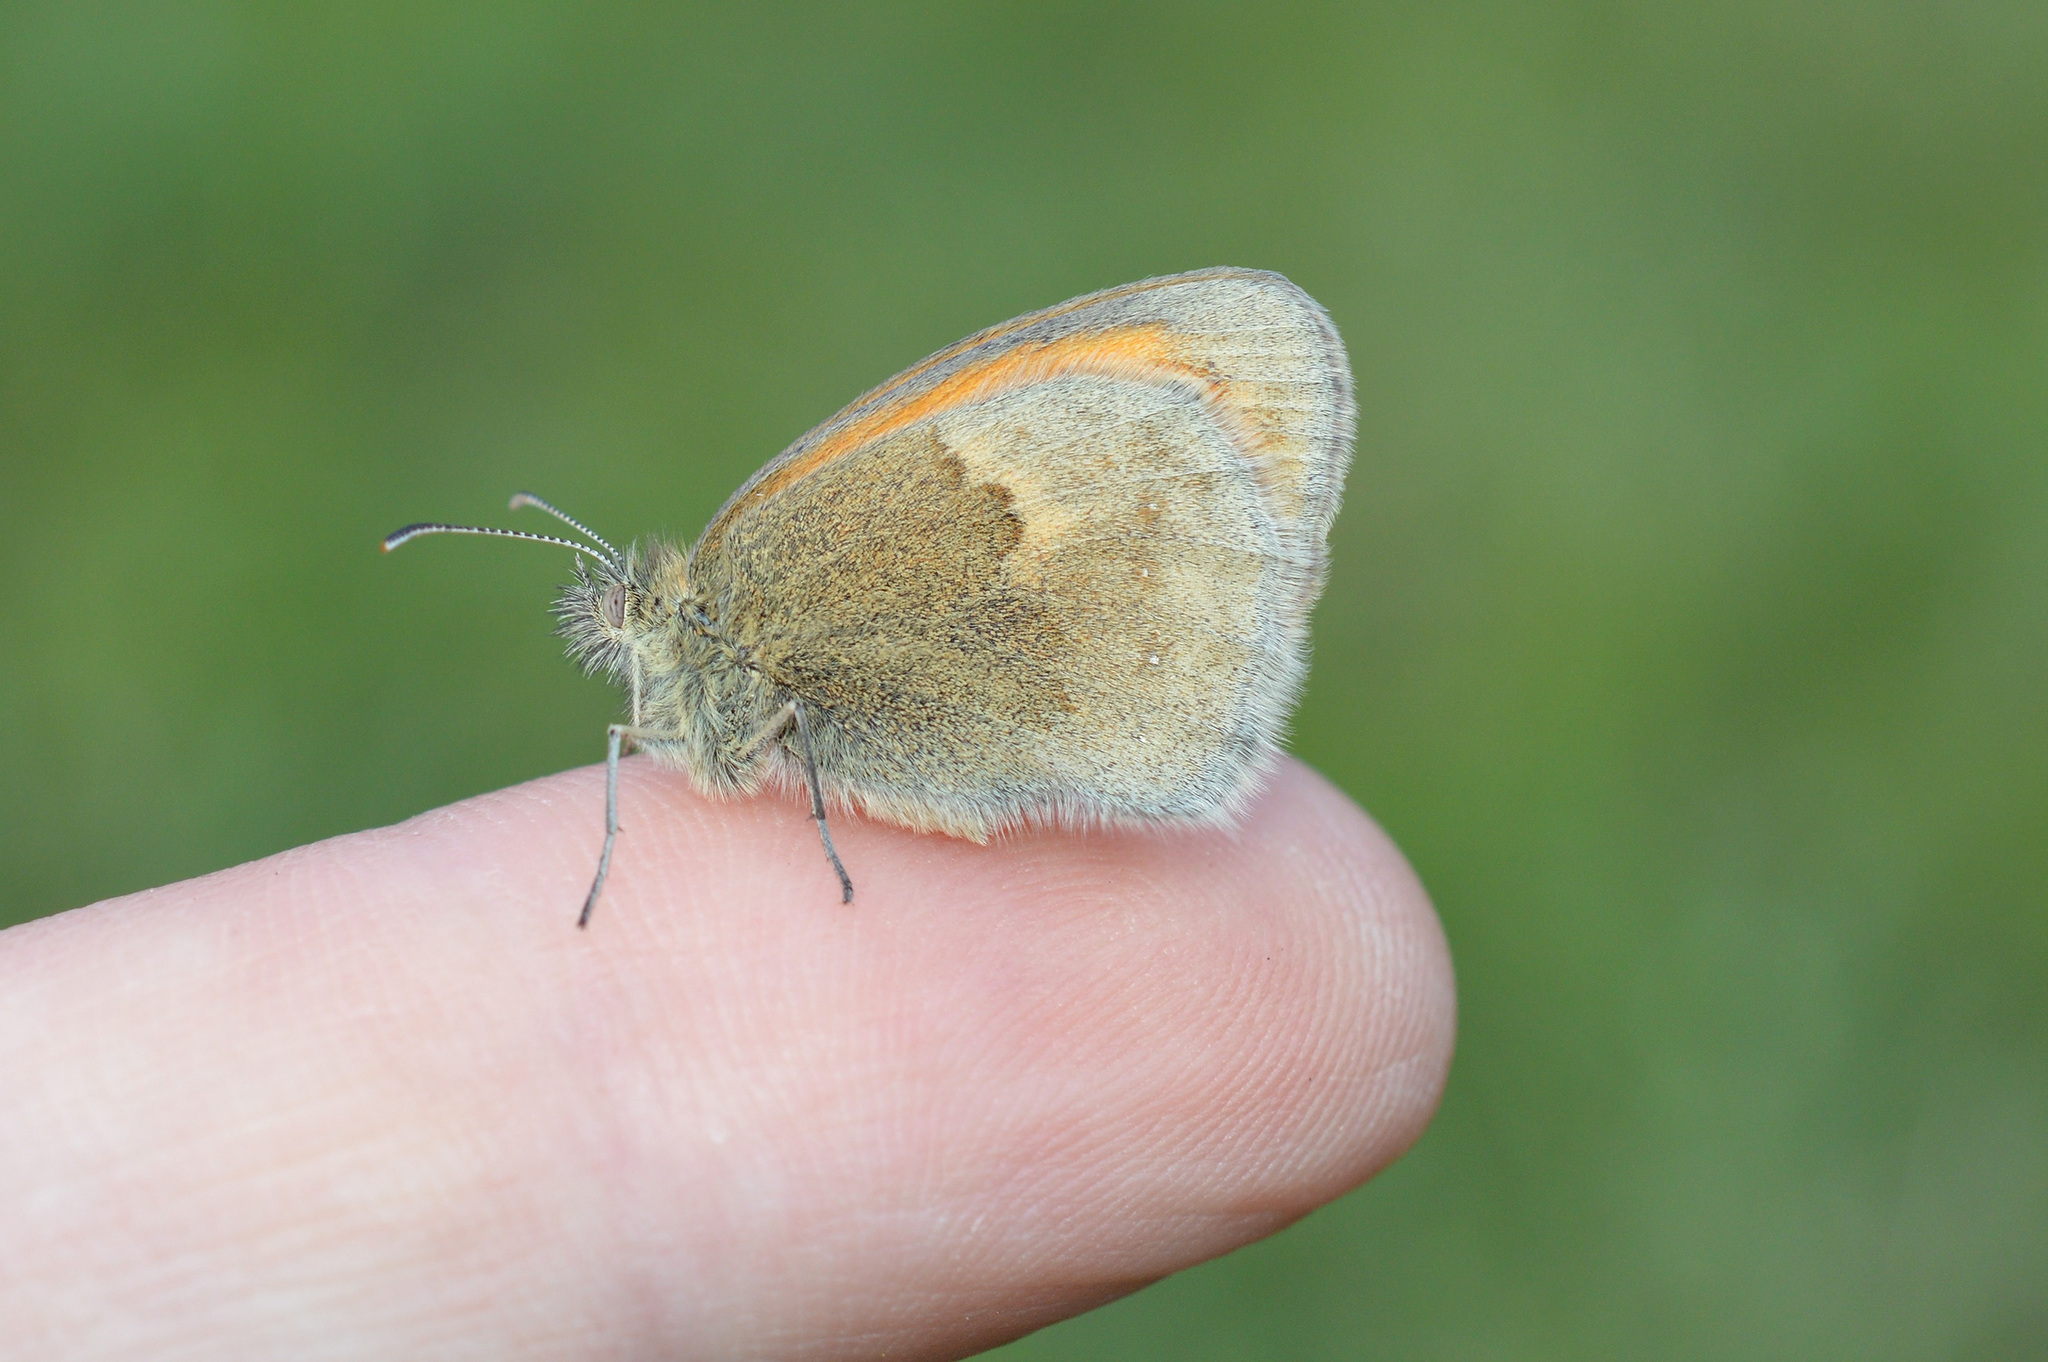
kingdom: Animalia
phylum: Arthropoda
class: Insecta
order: Lepidoptera
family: Nymphalidae
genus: Coenonympha
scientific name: Coenonympha pamphilus
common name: Small heath
